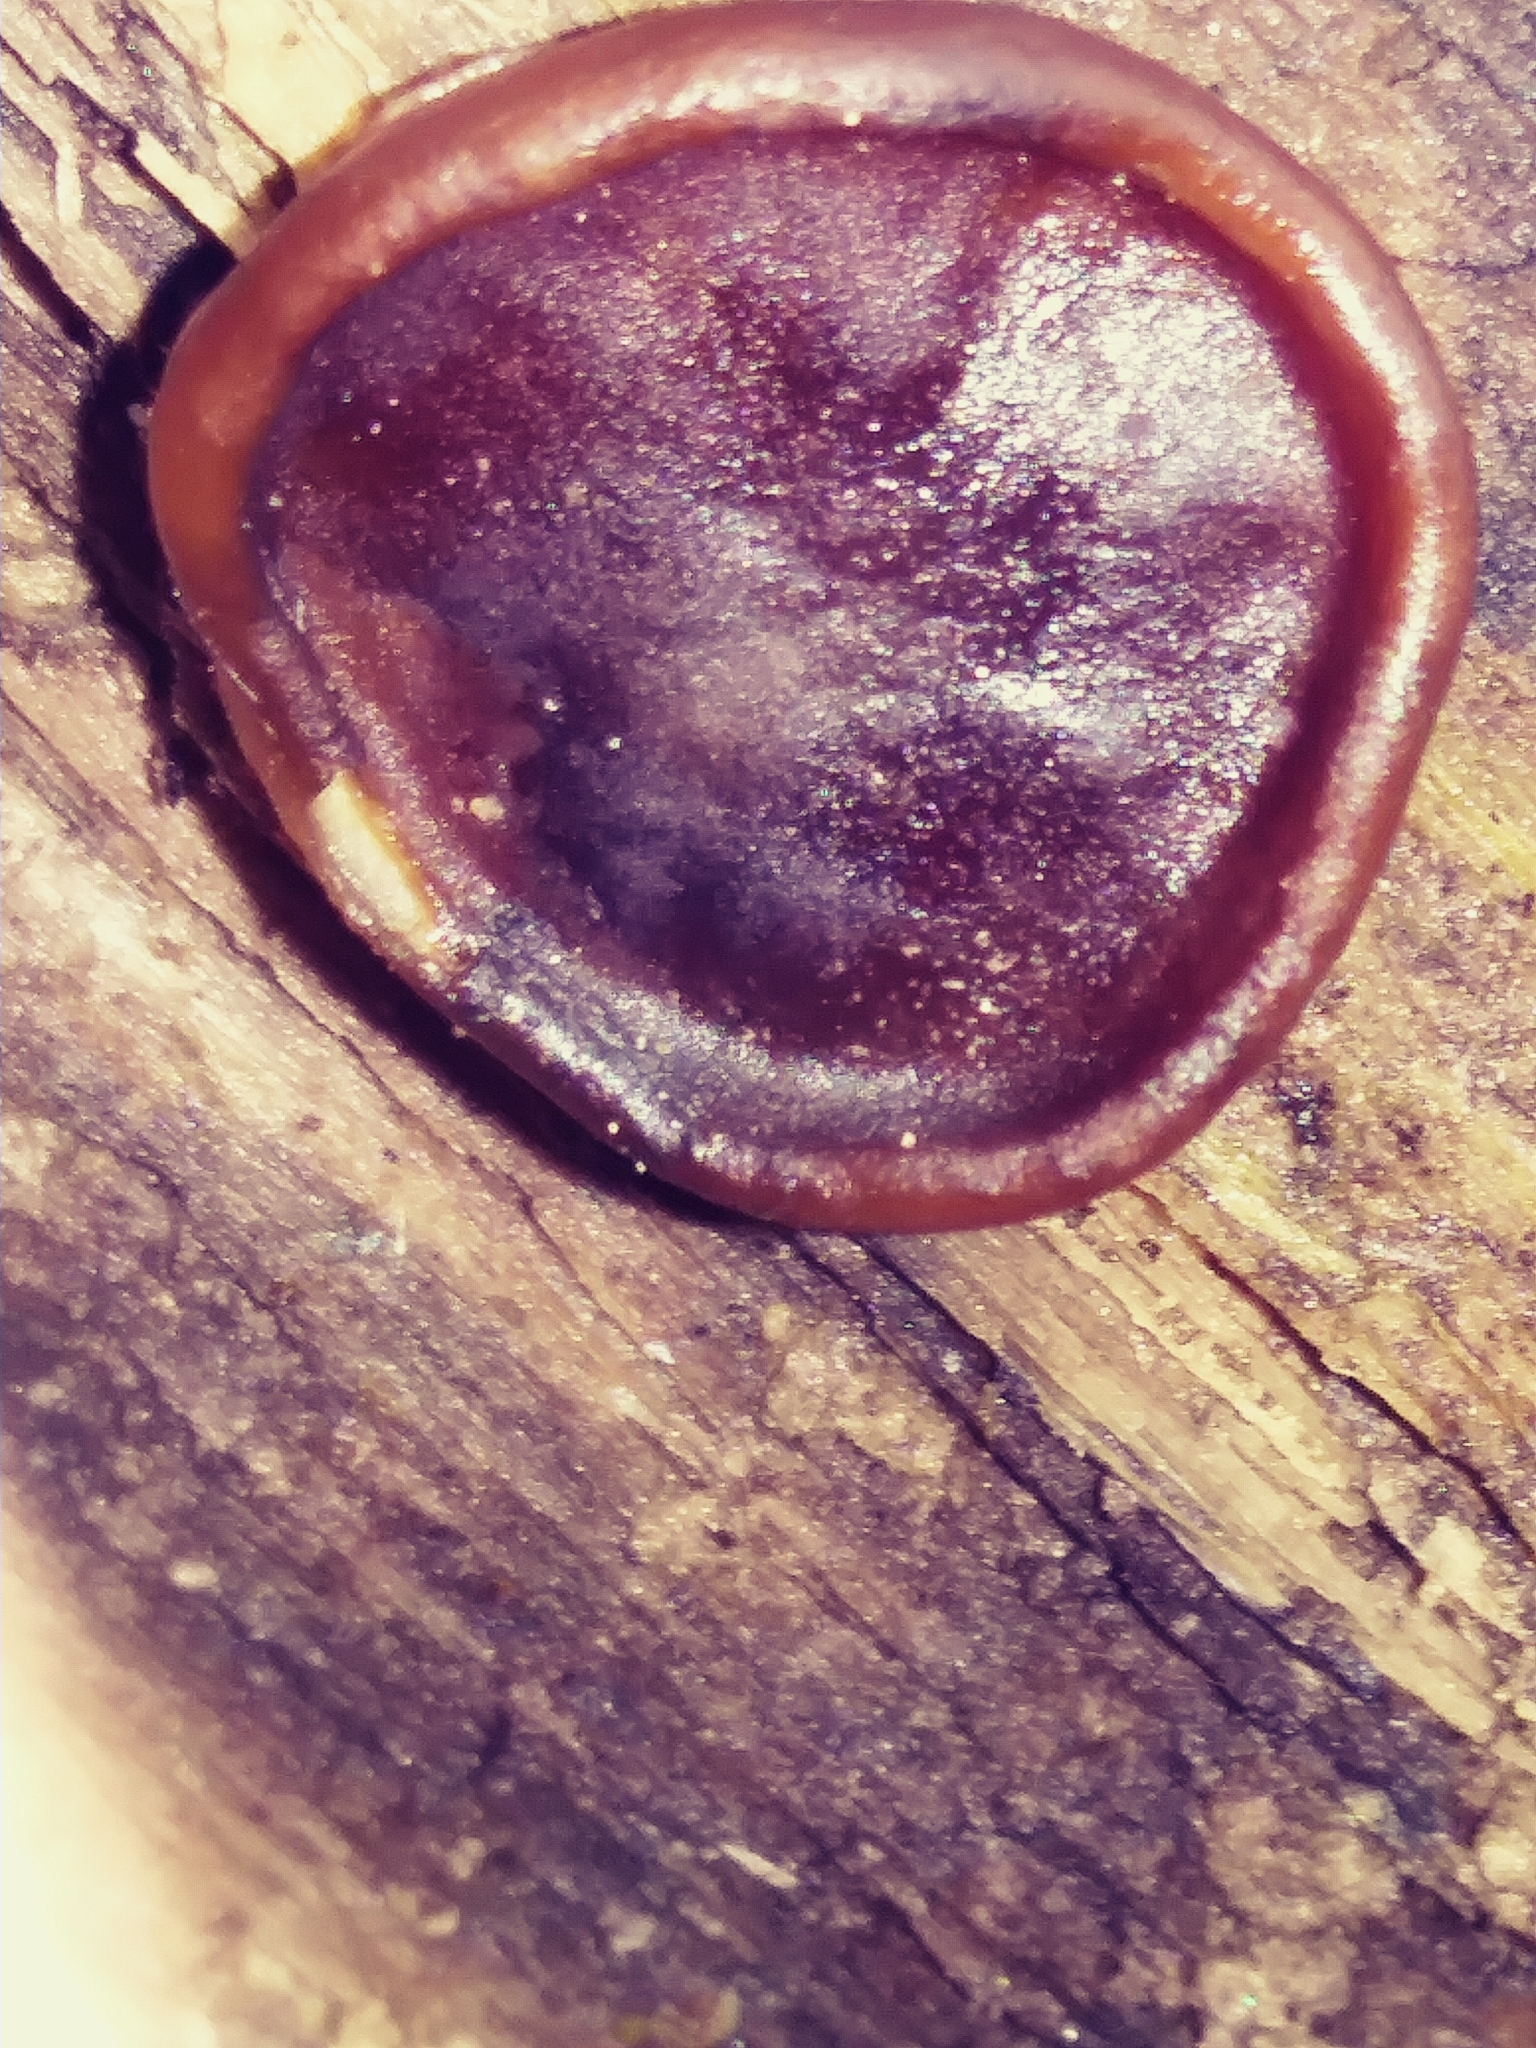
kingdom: Fungi
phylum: Ascomycota
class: Pezizomycetes
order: Pezizales
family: Pezizaceae
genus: Pachyella
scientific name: Pachyella clypeata
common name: Copper penny fungus
